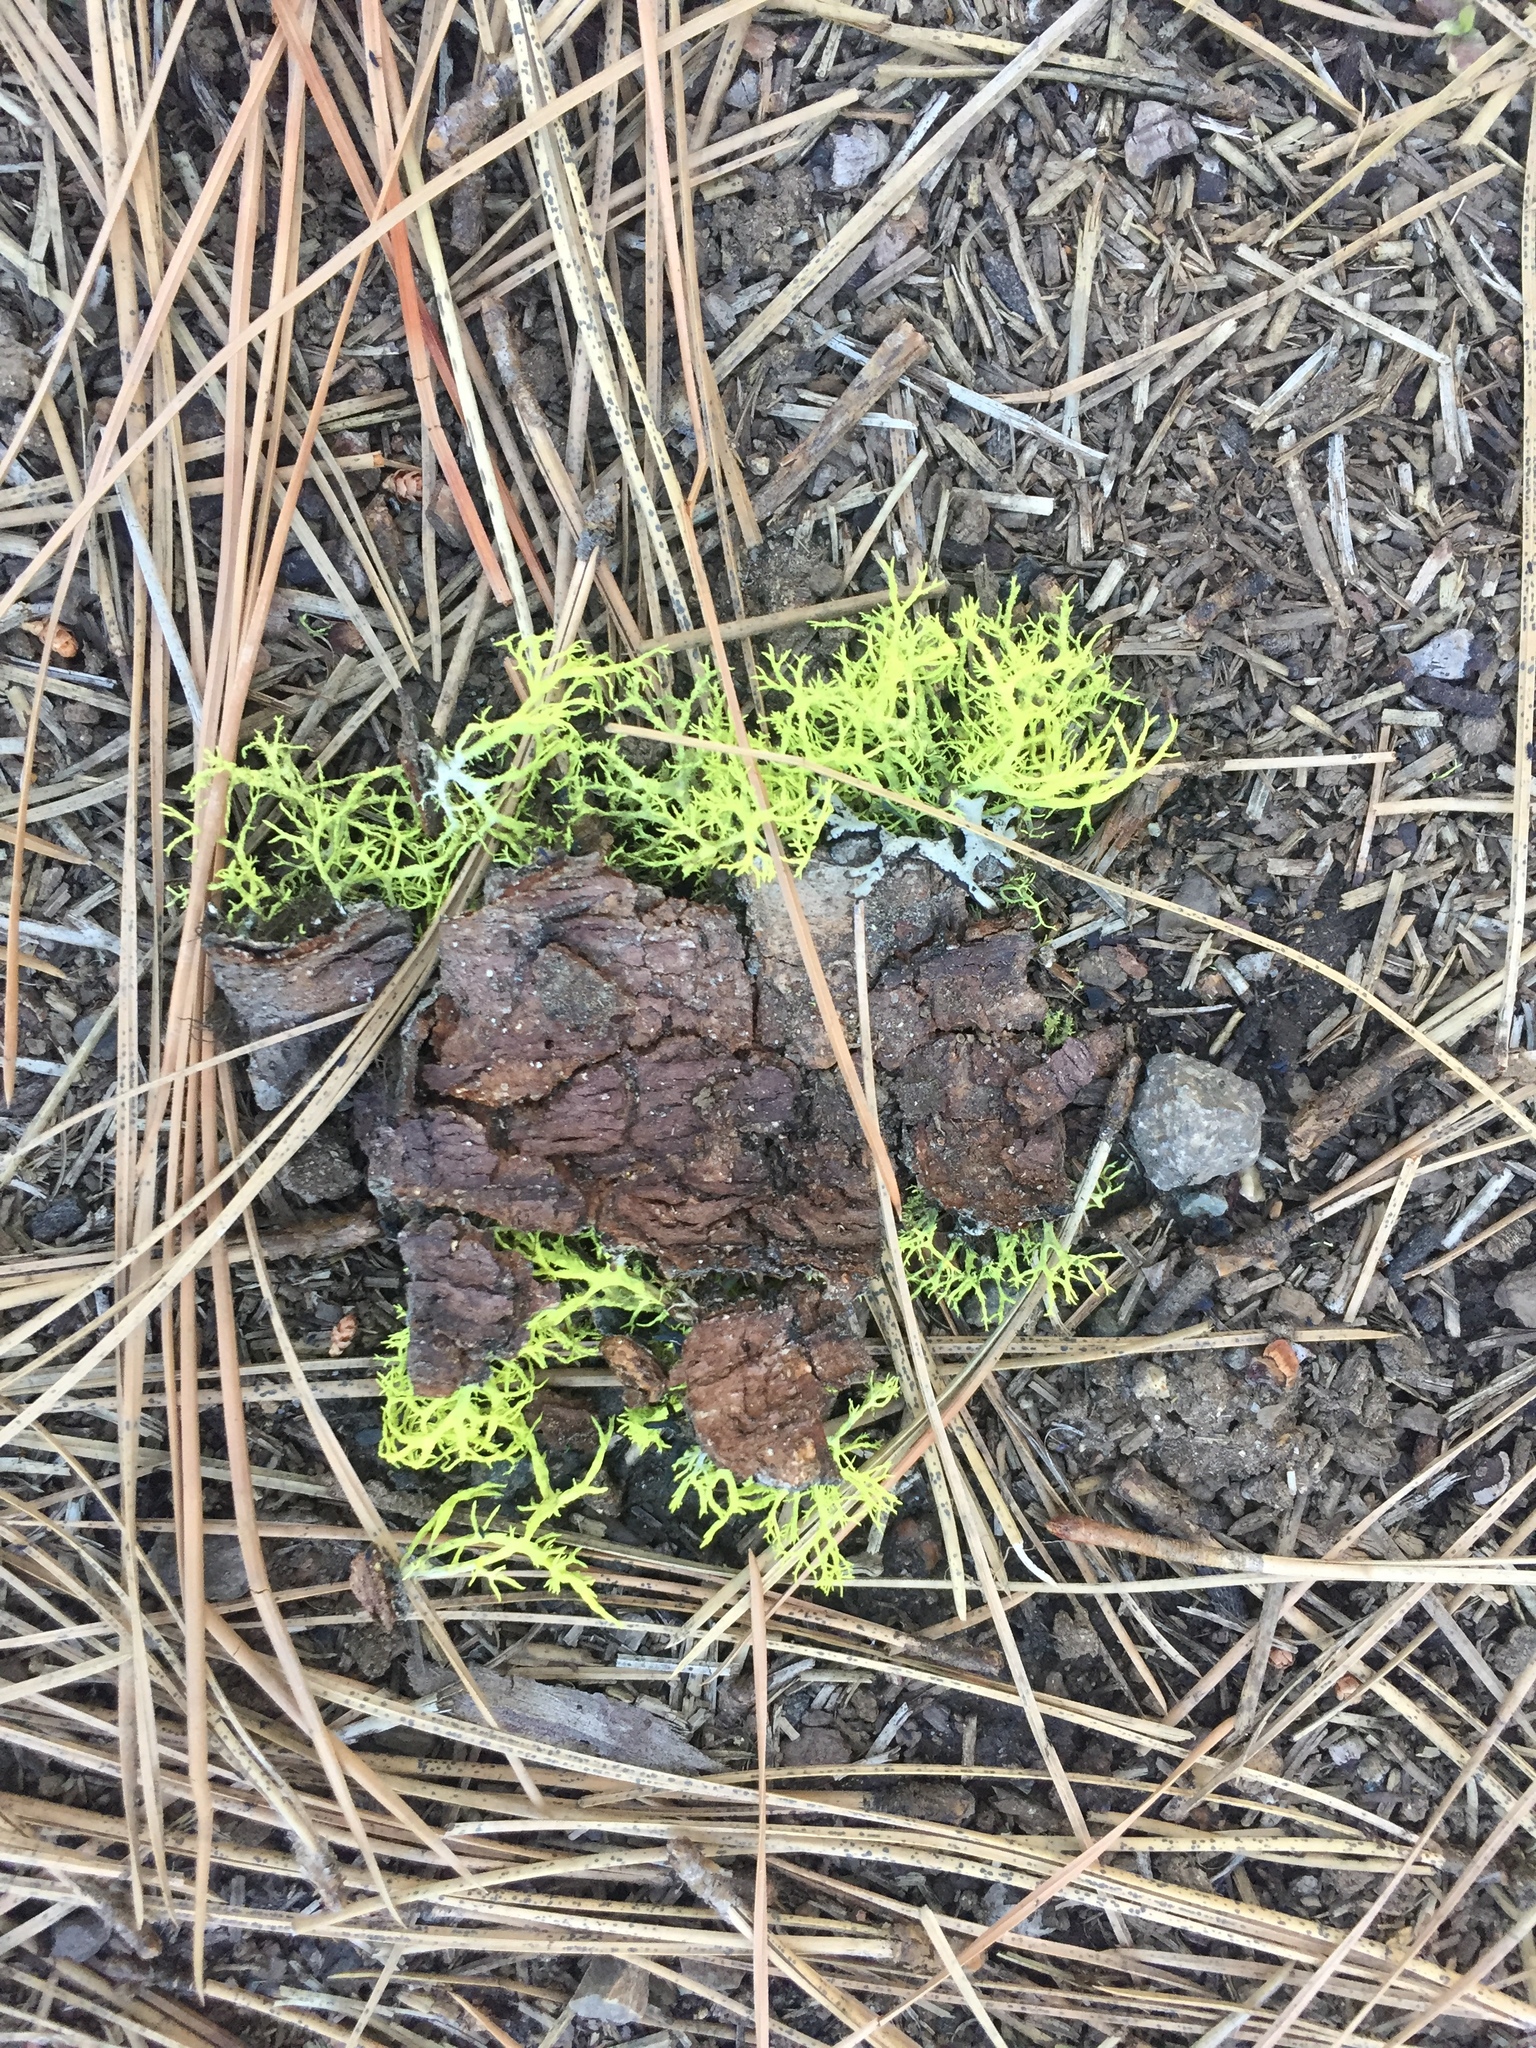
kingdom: Fungi
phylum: Ascomycota
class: Lecanoromycetes
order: Lecanorales
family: Parmeliaceae
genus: Letharia
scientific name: Letharia vulpina
